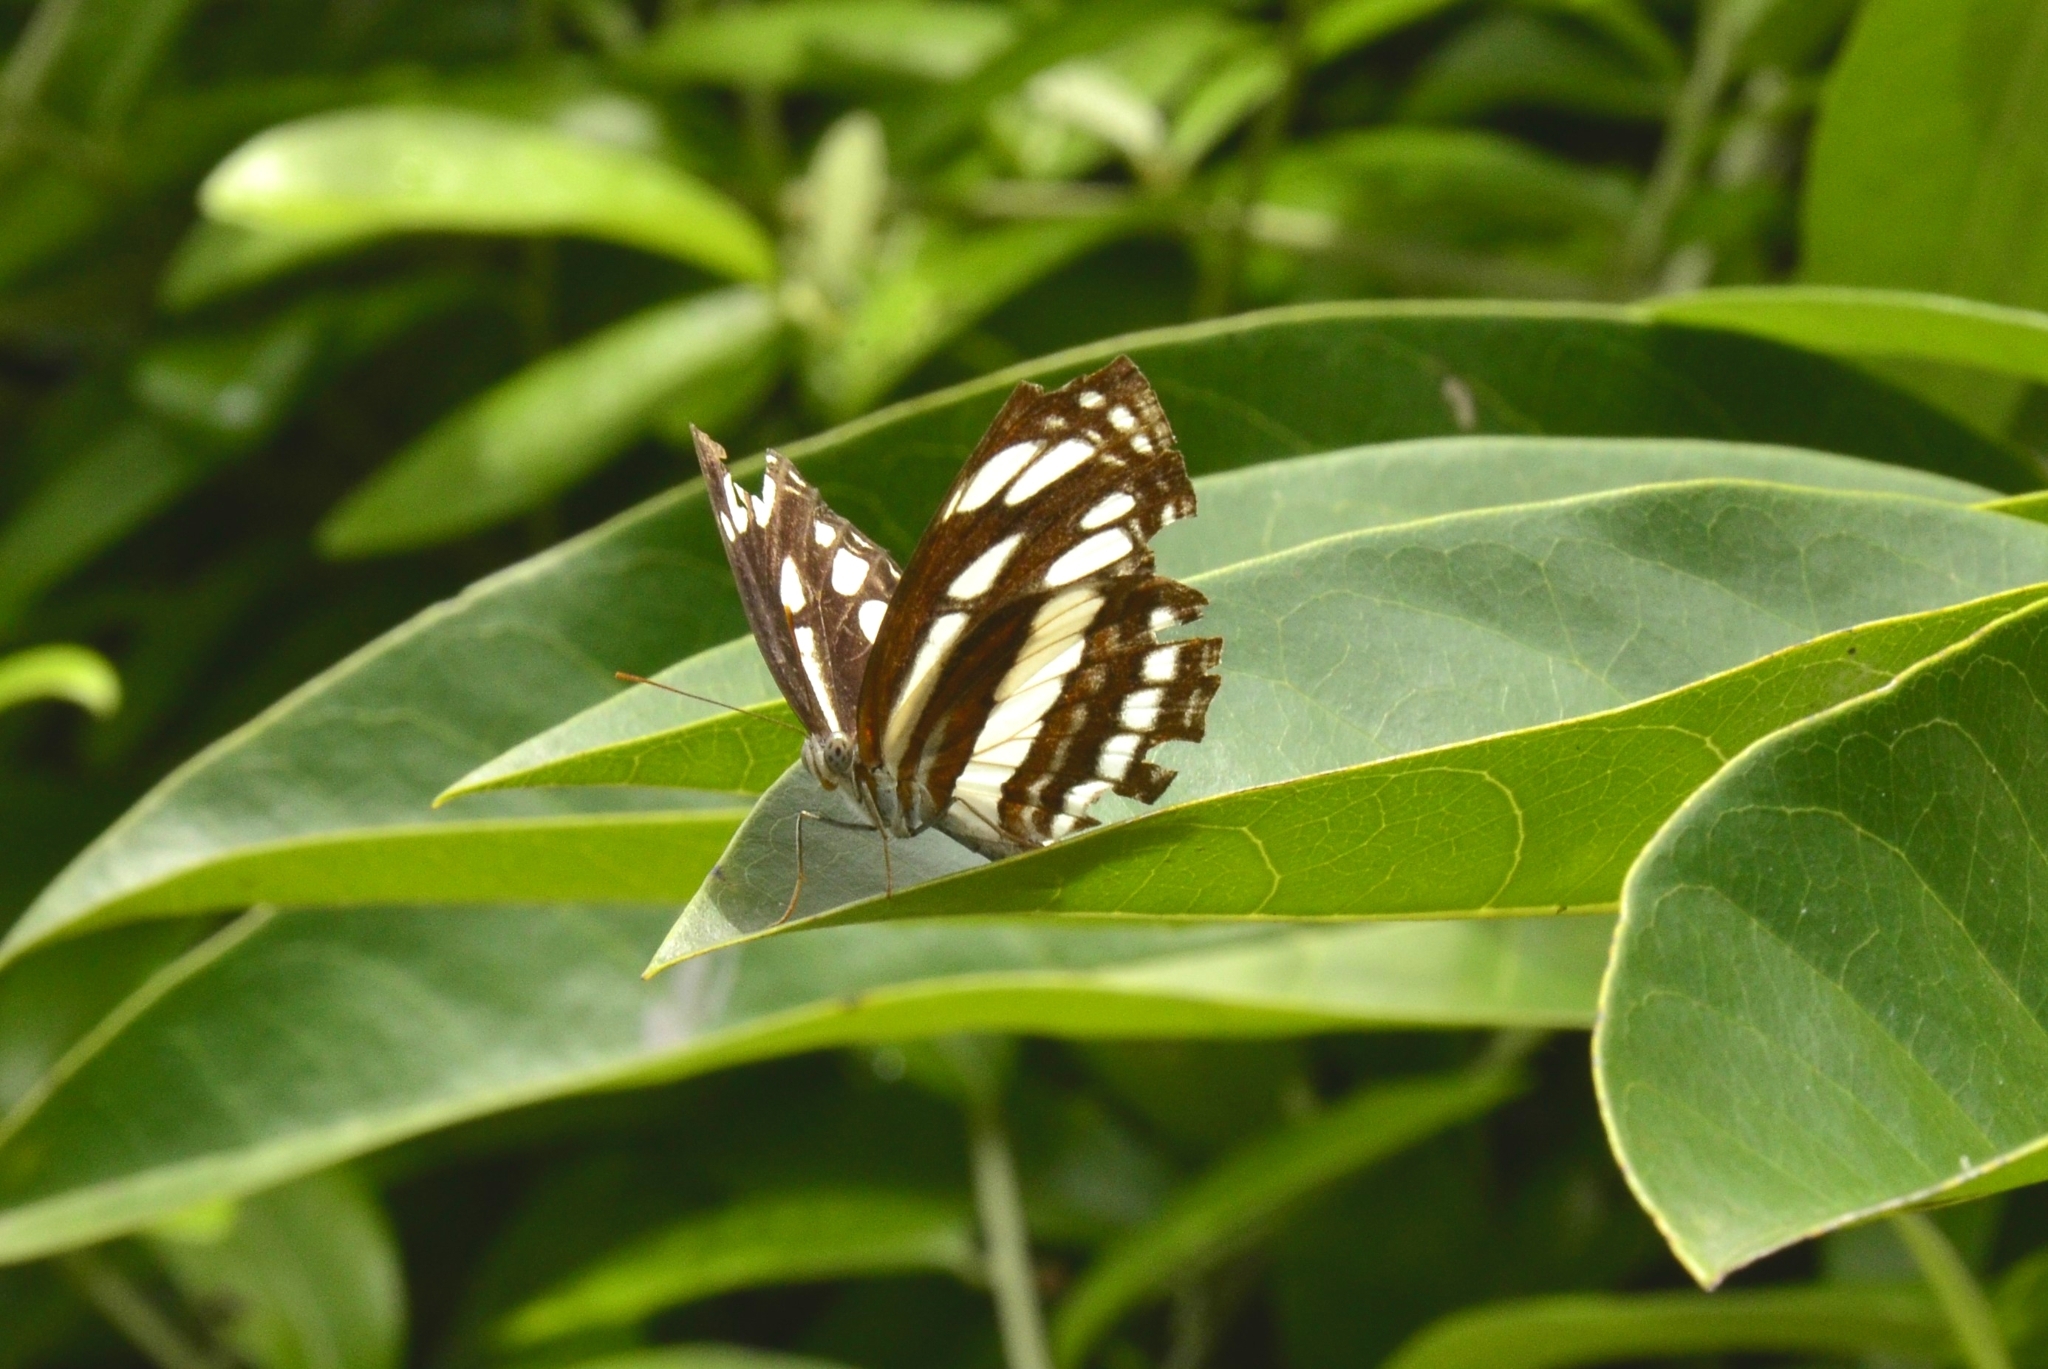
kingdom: Animalia
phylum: Arthropoda
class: Insecta
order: Lepidoptera
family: Nymphalidae
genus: Neptis
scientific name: Neptis hylas
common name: Common sailer
